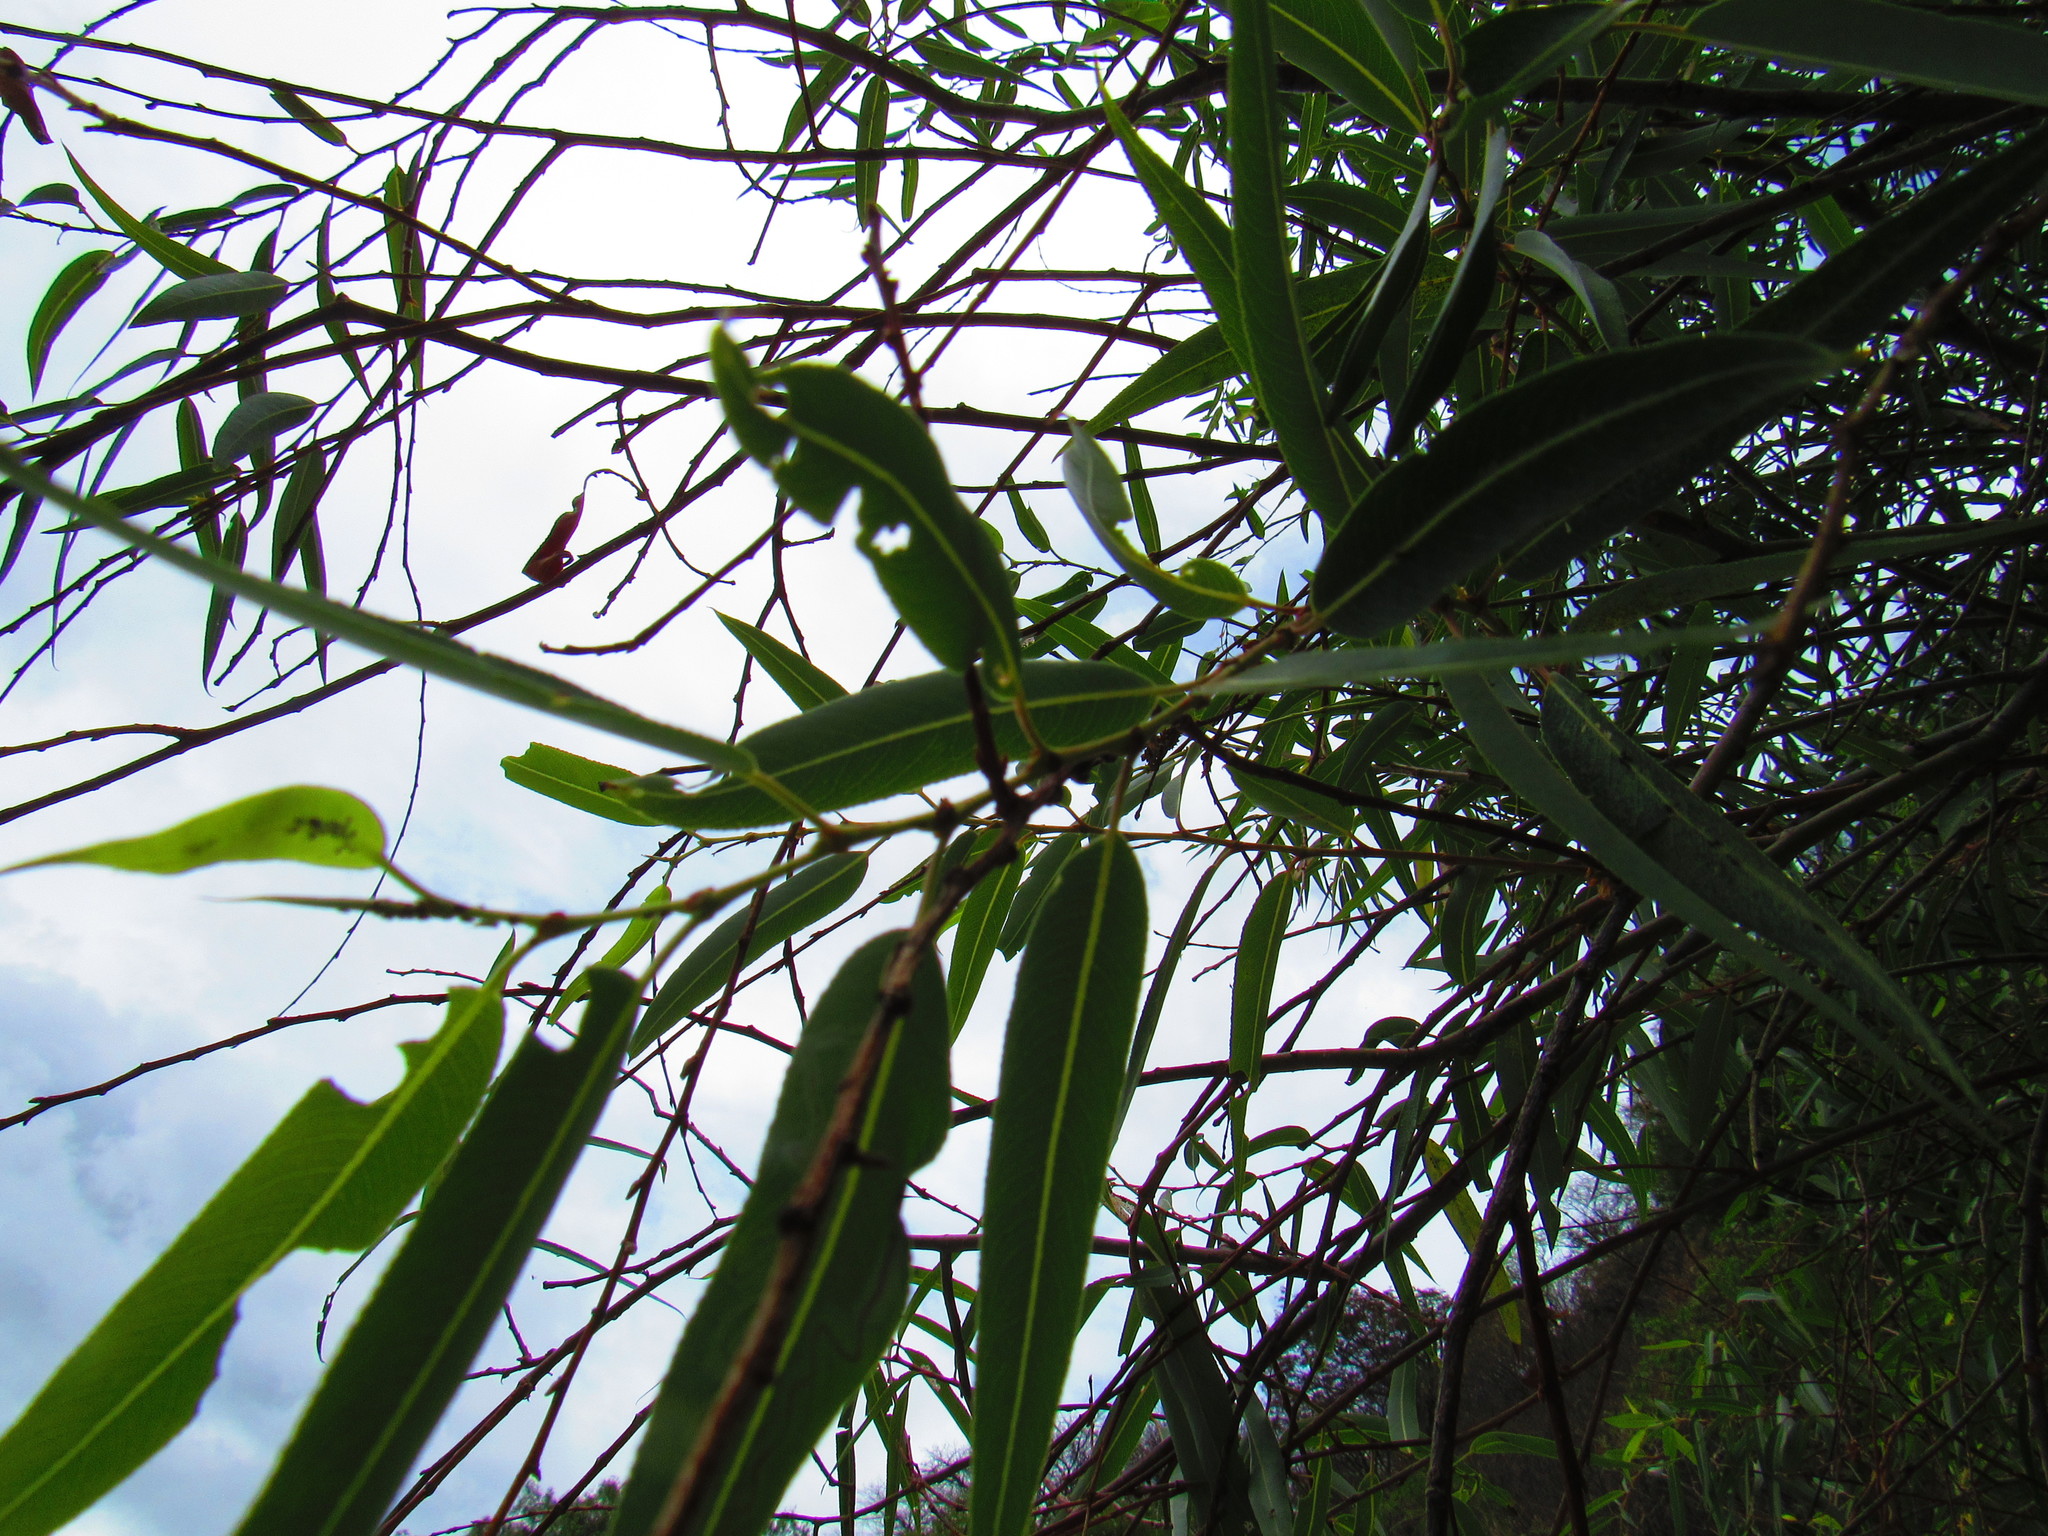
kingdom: Plantae
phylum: Tracheophyta
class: Magnoliopsida
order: Malpighiales
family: Salicaceae
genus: Salix
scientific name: Salix humboldtiana
